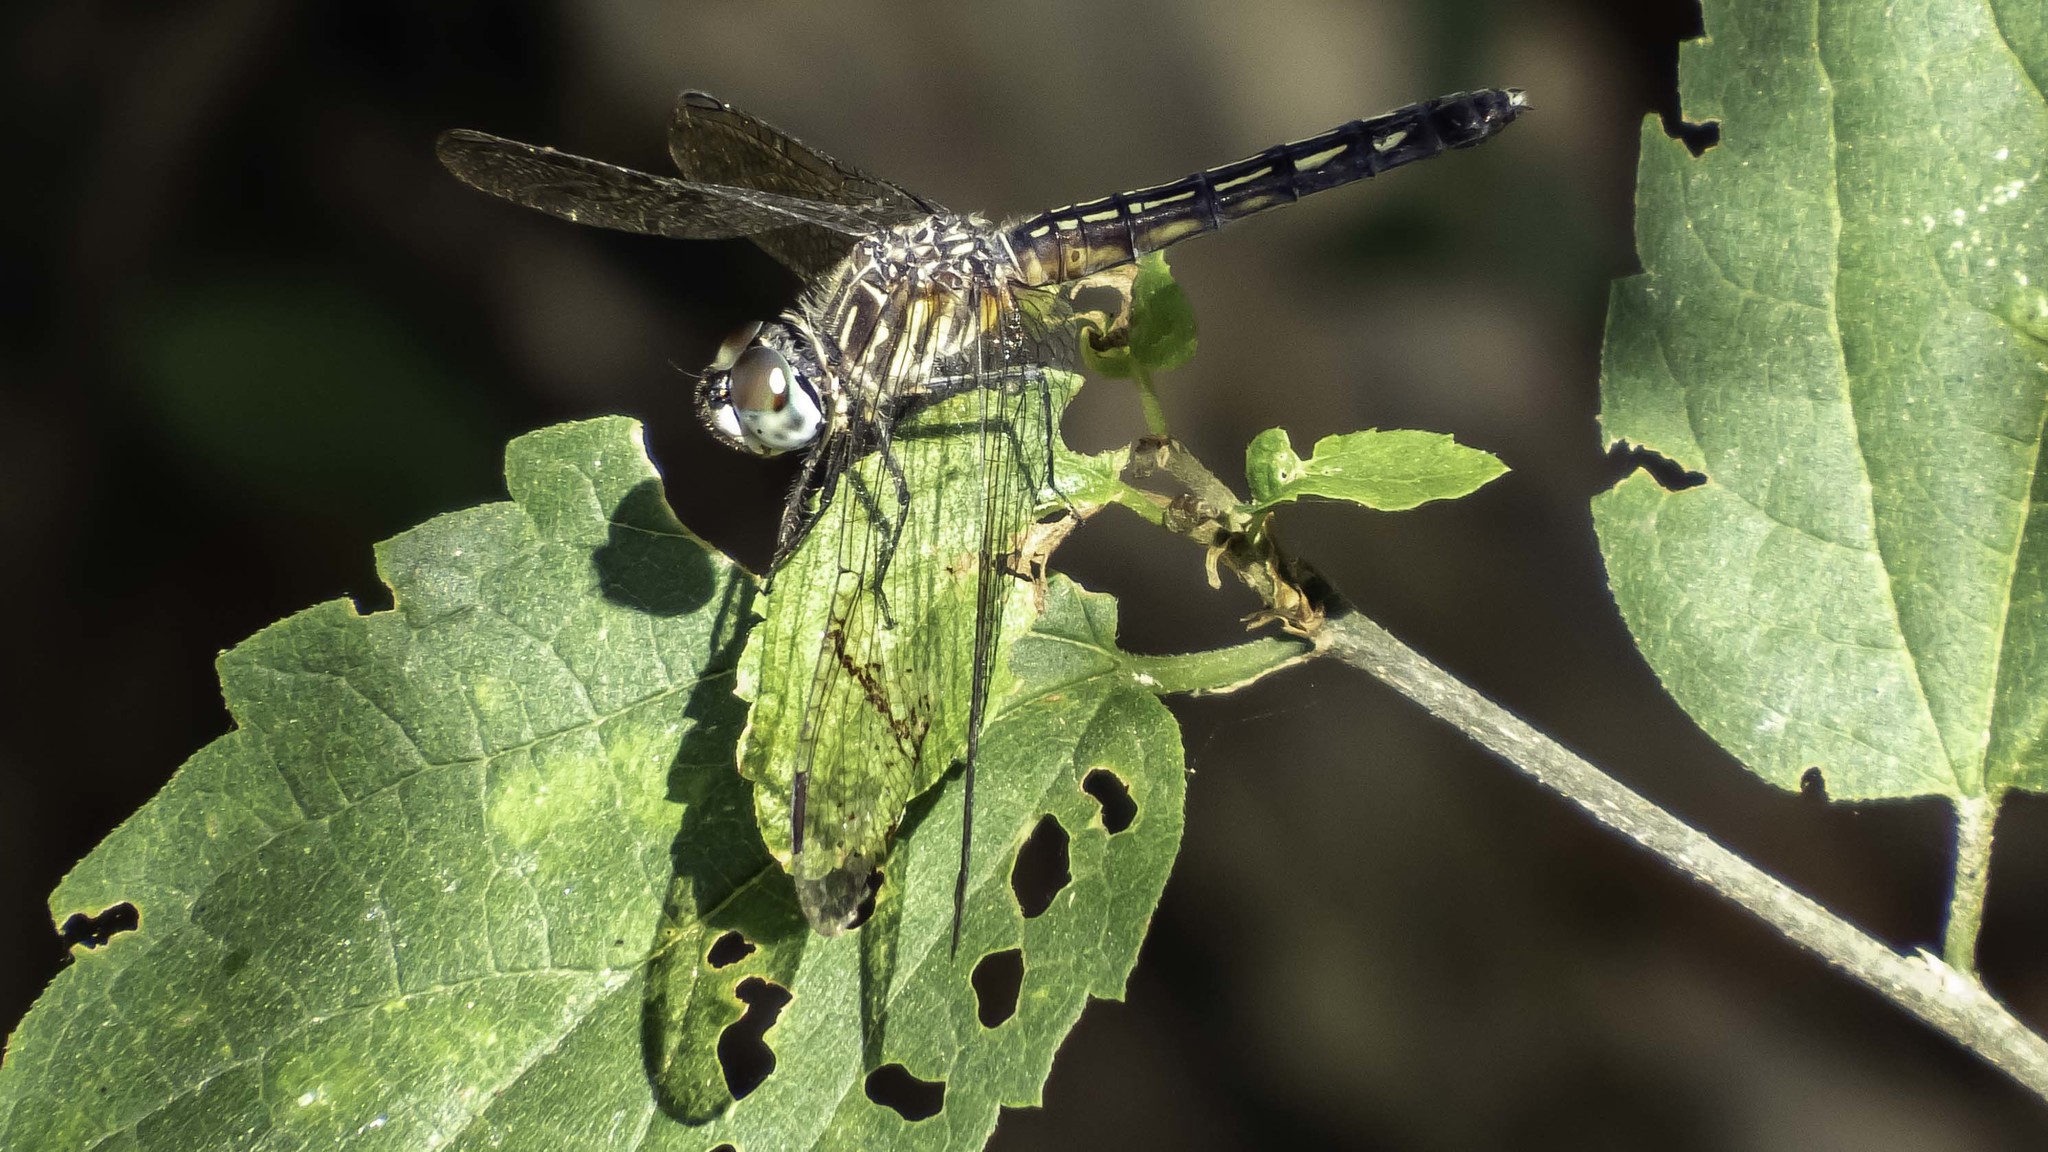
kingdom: Animalia
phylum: Arthropoda
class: Insecta
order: Odonata
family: Libellulidae
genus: Pachydiplax
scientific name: Pachydiplax longipennis
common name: Blue dasher
